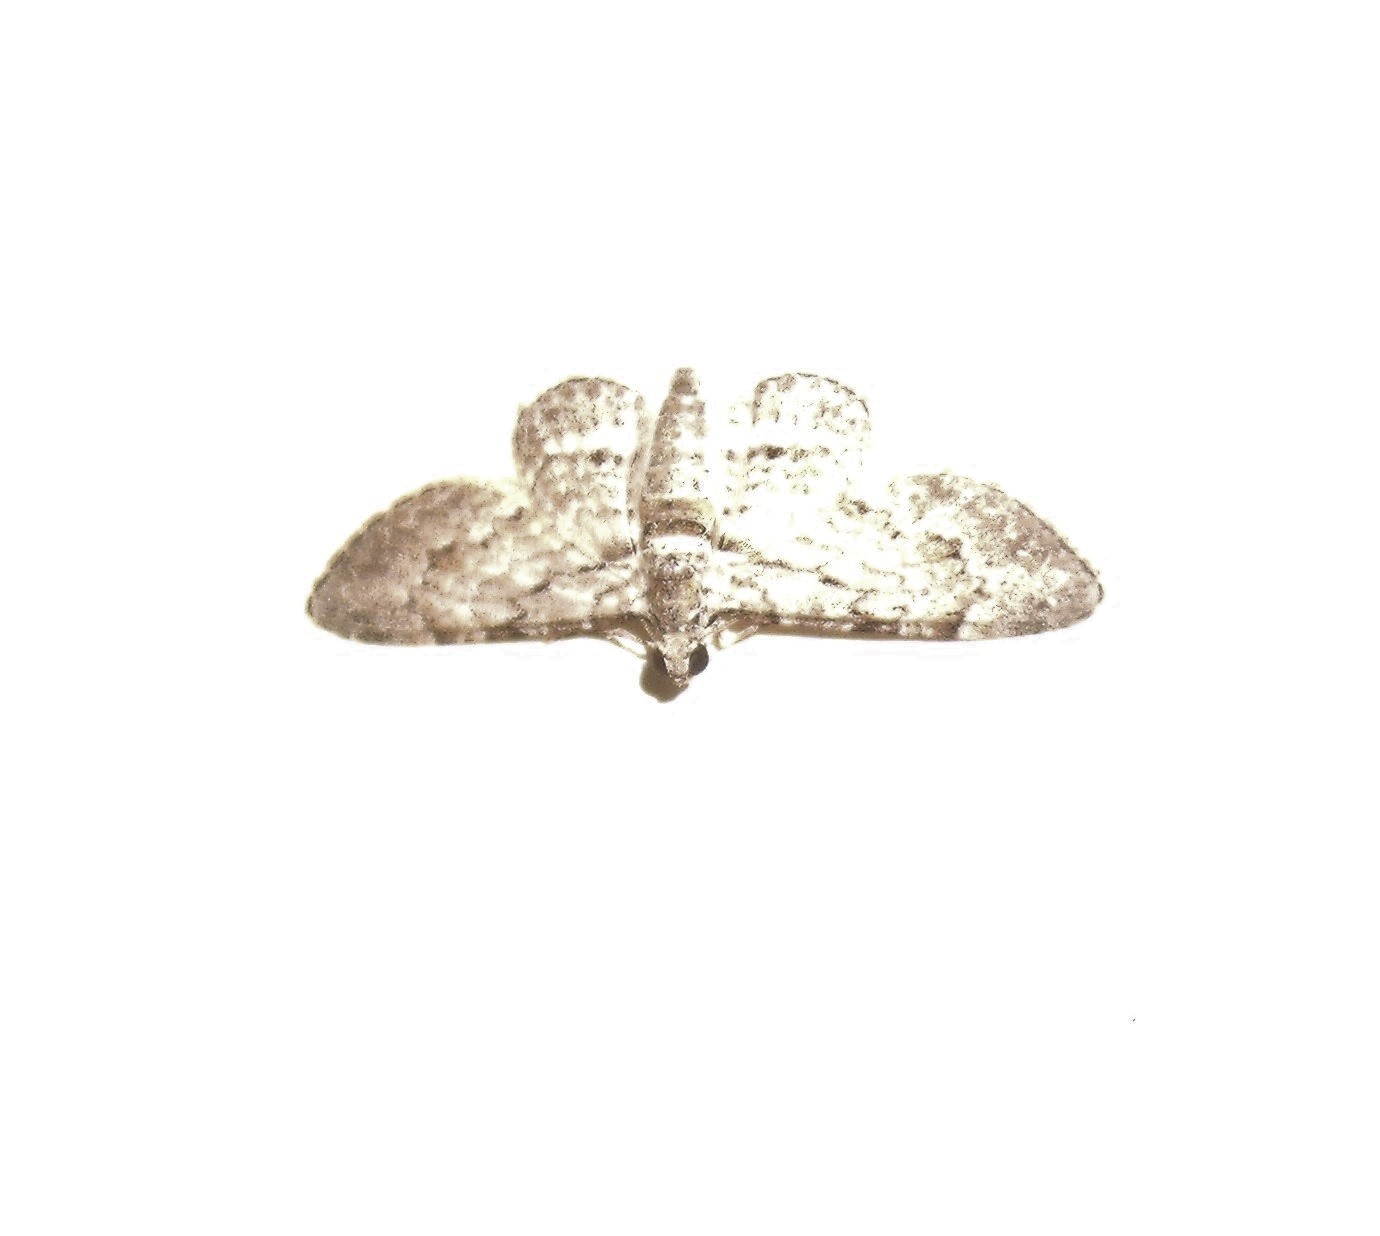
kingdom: Animalia
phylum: Arthropoda
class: Insecta
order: Lepidoptera
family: Geometridae
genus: Chloroclystis
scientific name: Chloroclystis insigillata
